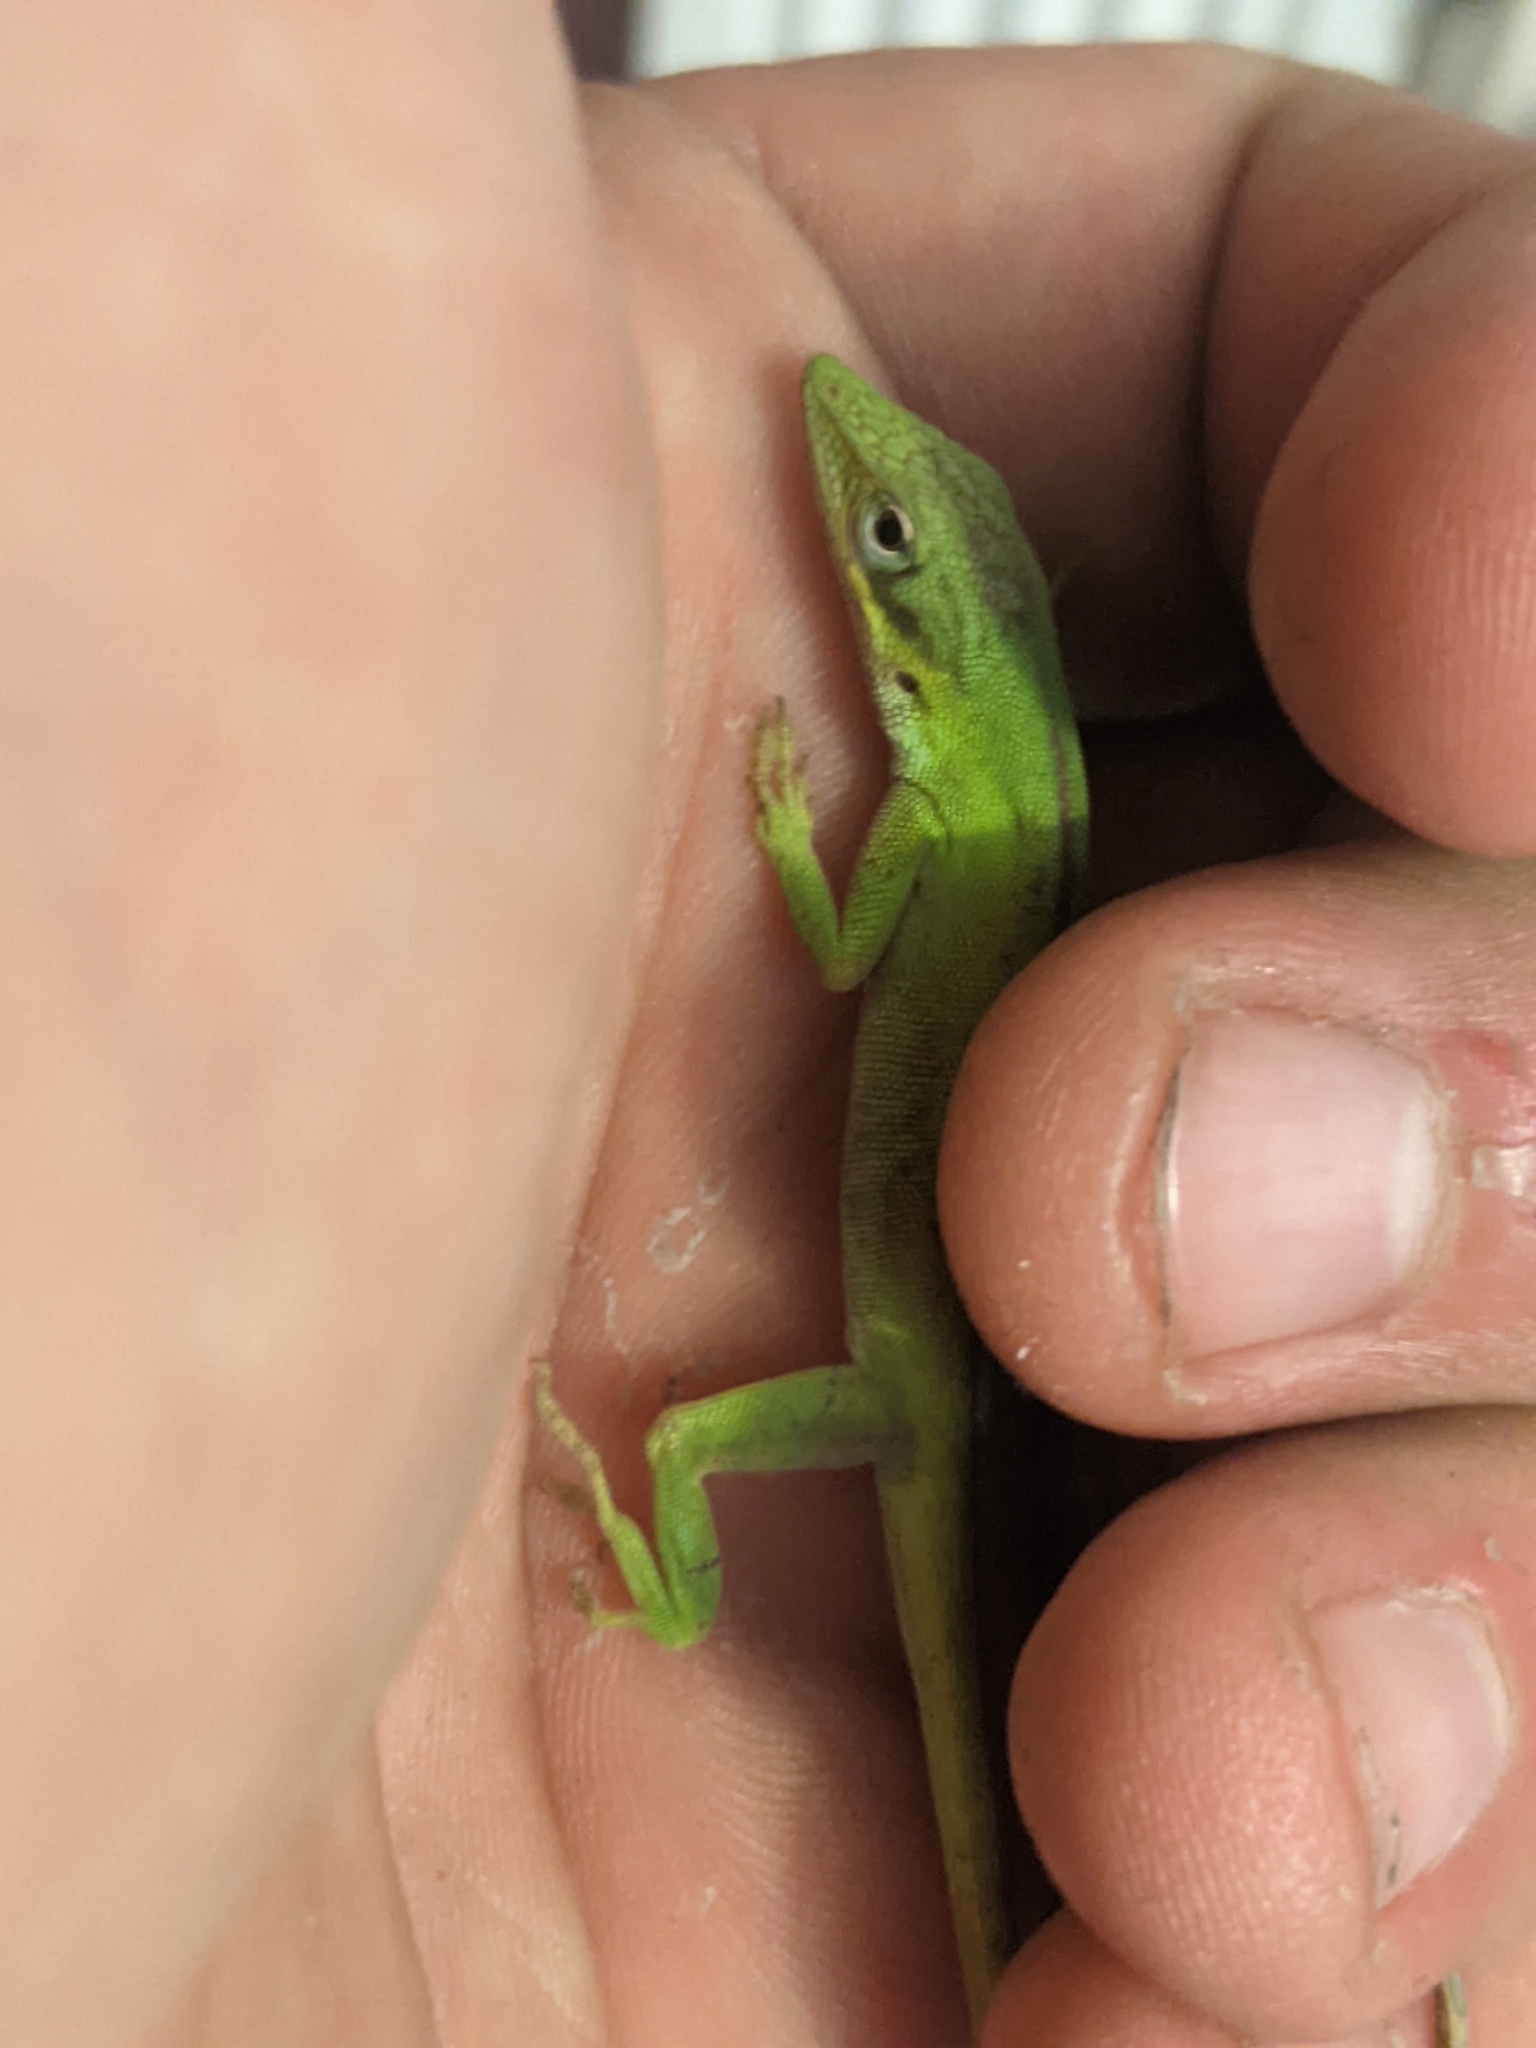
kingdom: Animalia
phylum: Chordata
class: Squamata
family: Dactyloidae
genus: Anolis
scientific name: Anolis carolinensis
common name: Green anole
